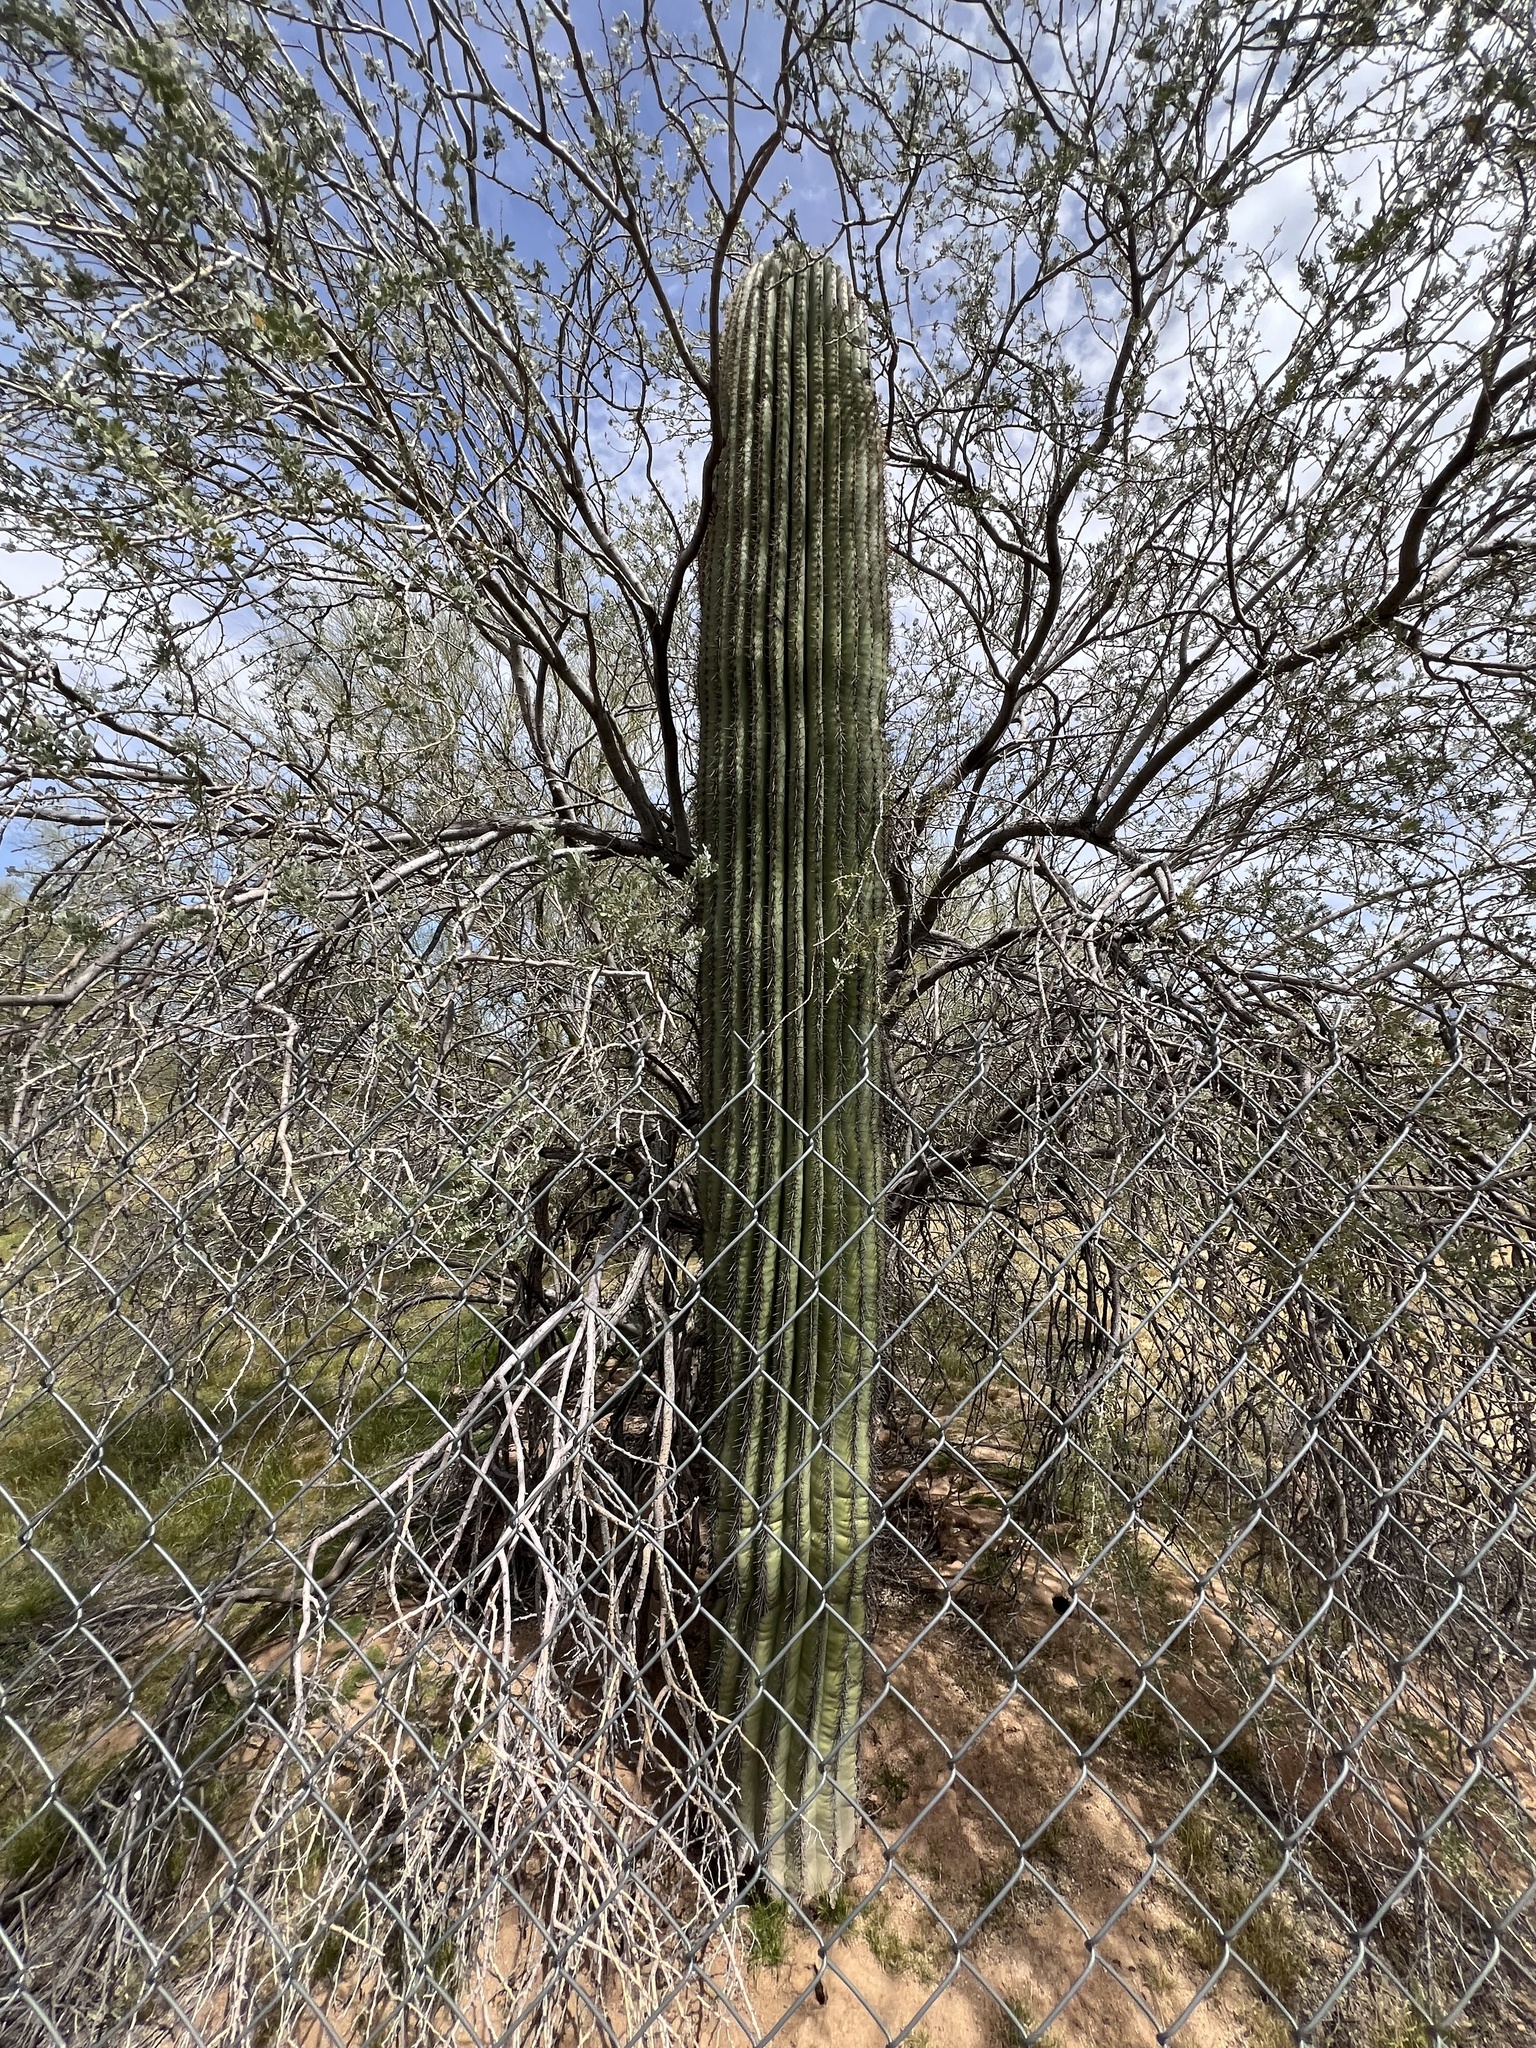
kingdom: Plantae
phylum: Tracheophyta
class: Magnoliopsida
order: Caryophyllales
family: Cactaceae
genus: Carnegiea
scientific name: Carnegiea gigantea
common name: Saguaro
